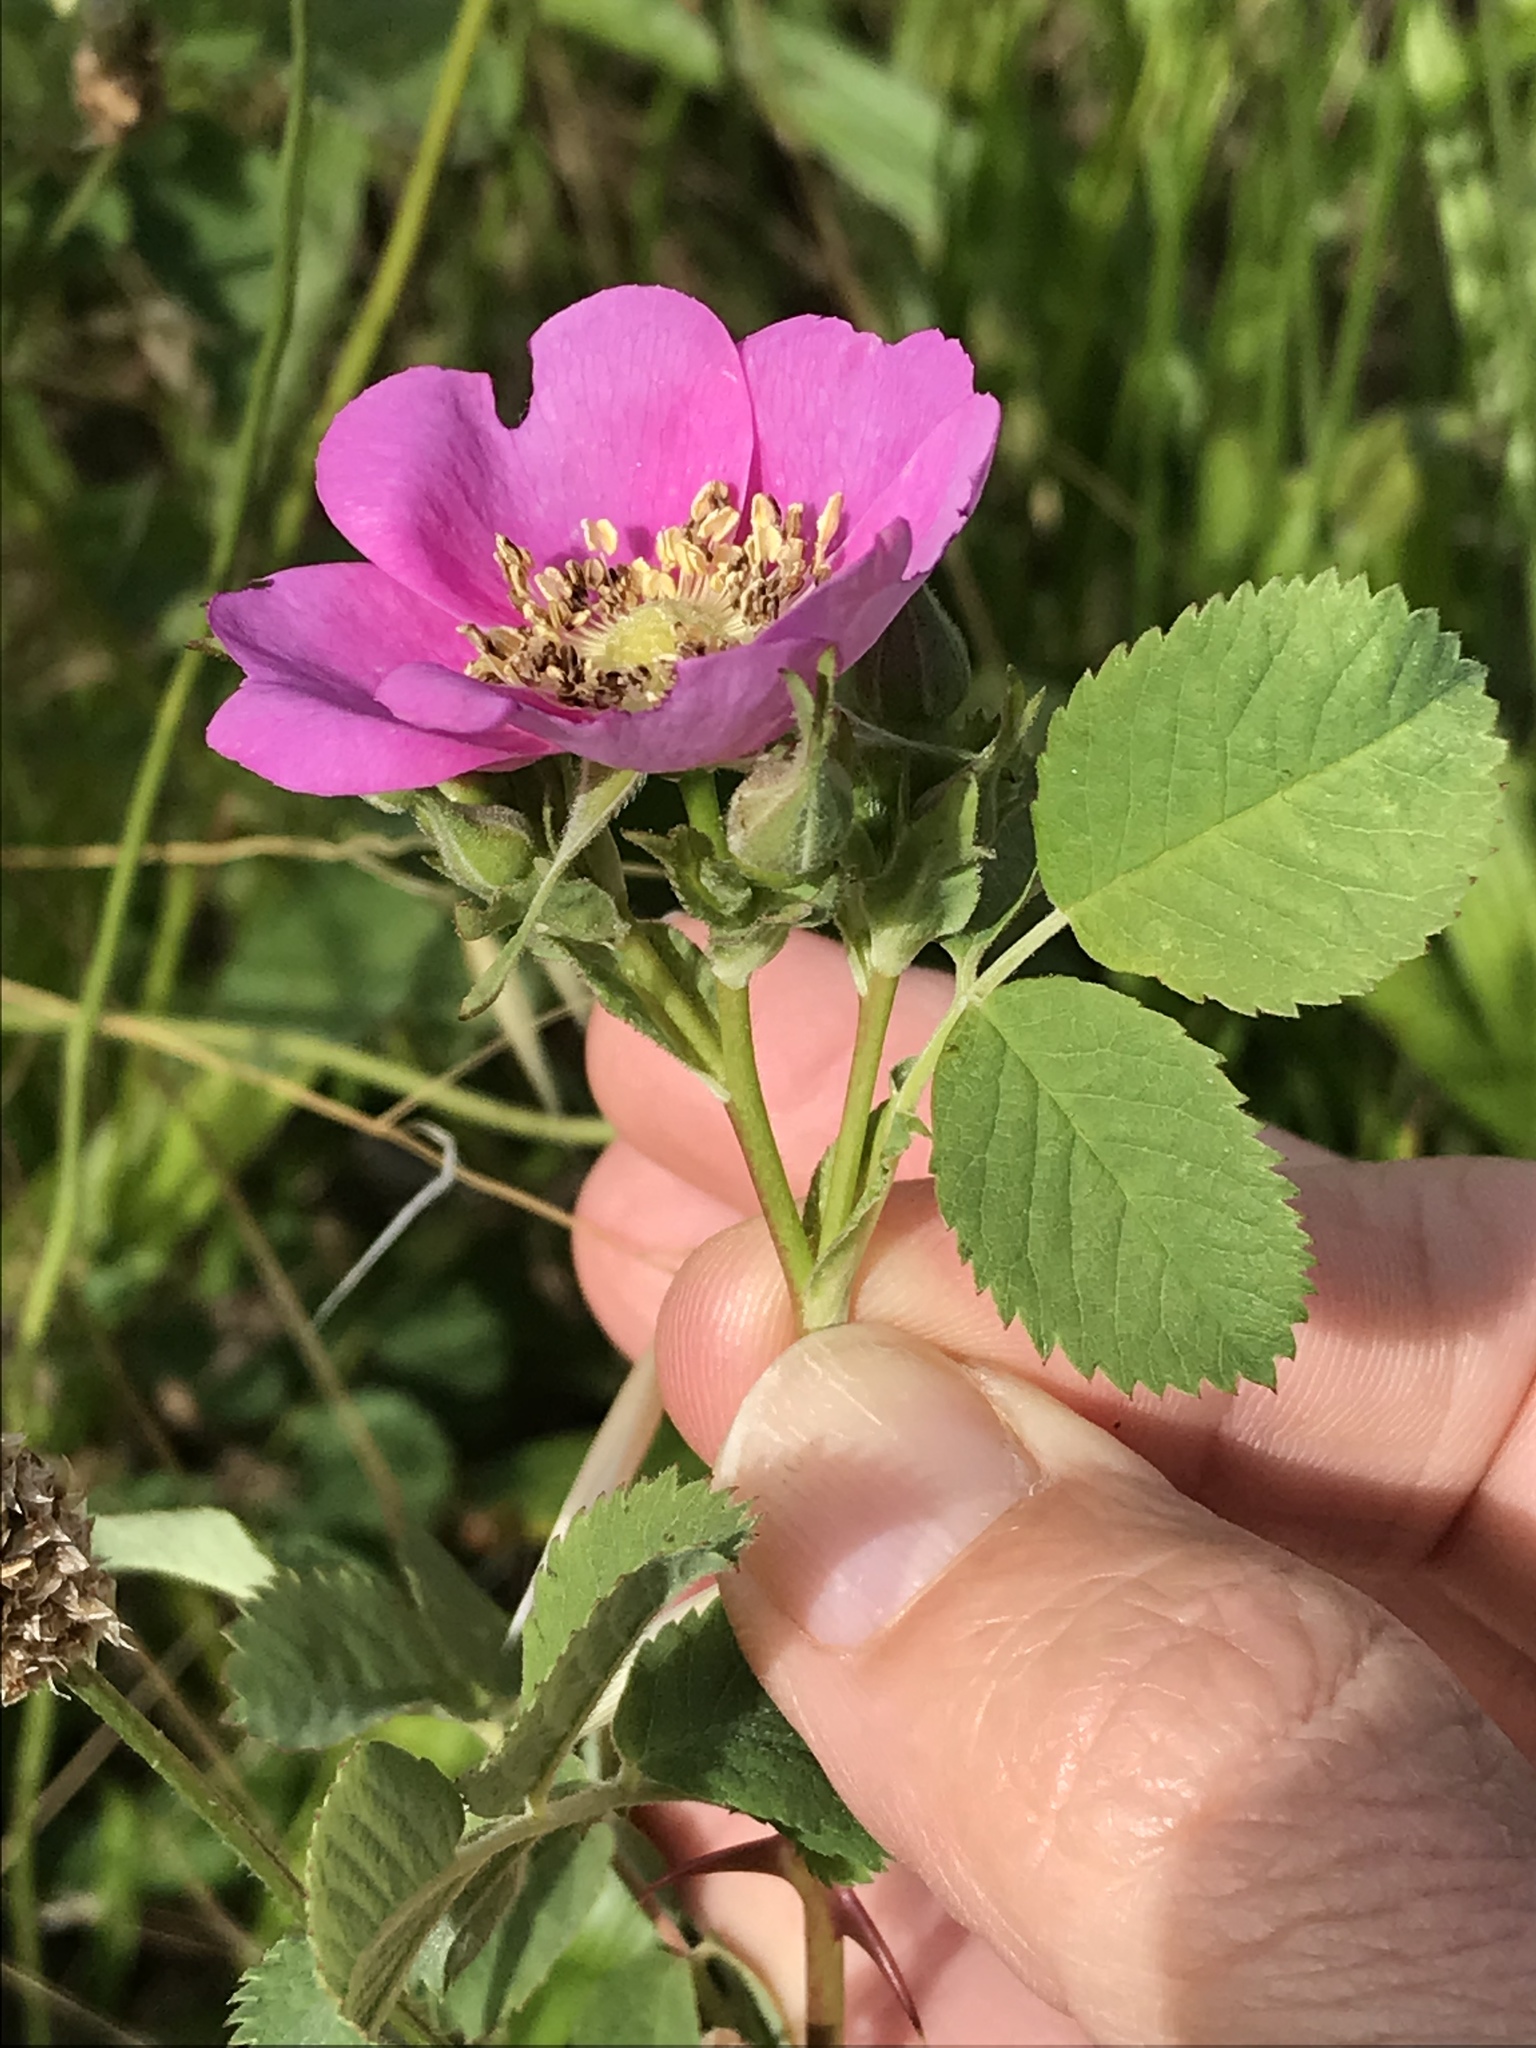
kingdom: Plantae
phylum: Tracheophyta
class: Magnoliopsida
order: Rosales
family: Rosaceae
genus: Rosa
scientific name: Rosa californica
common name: California rose
